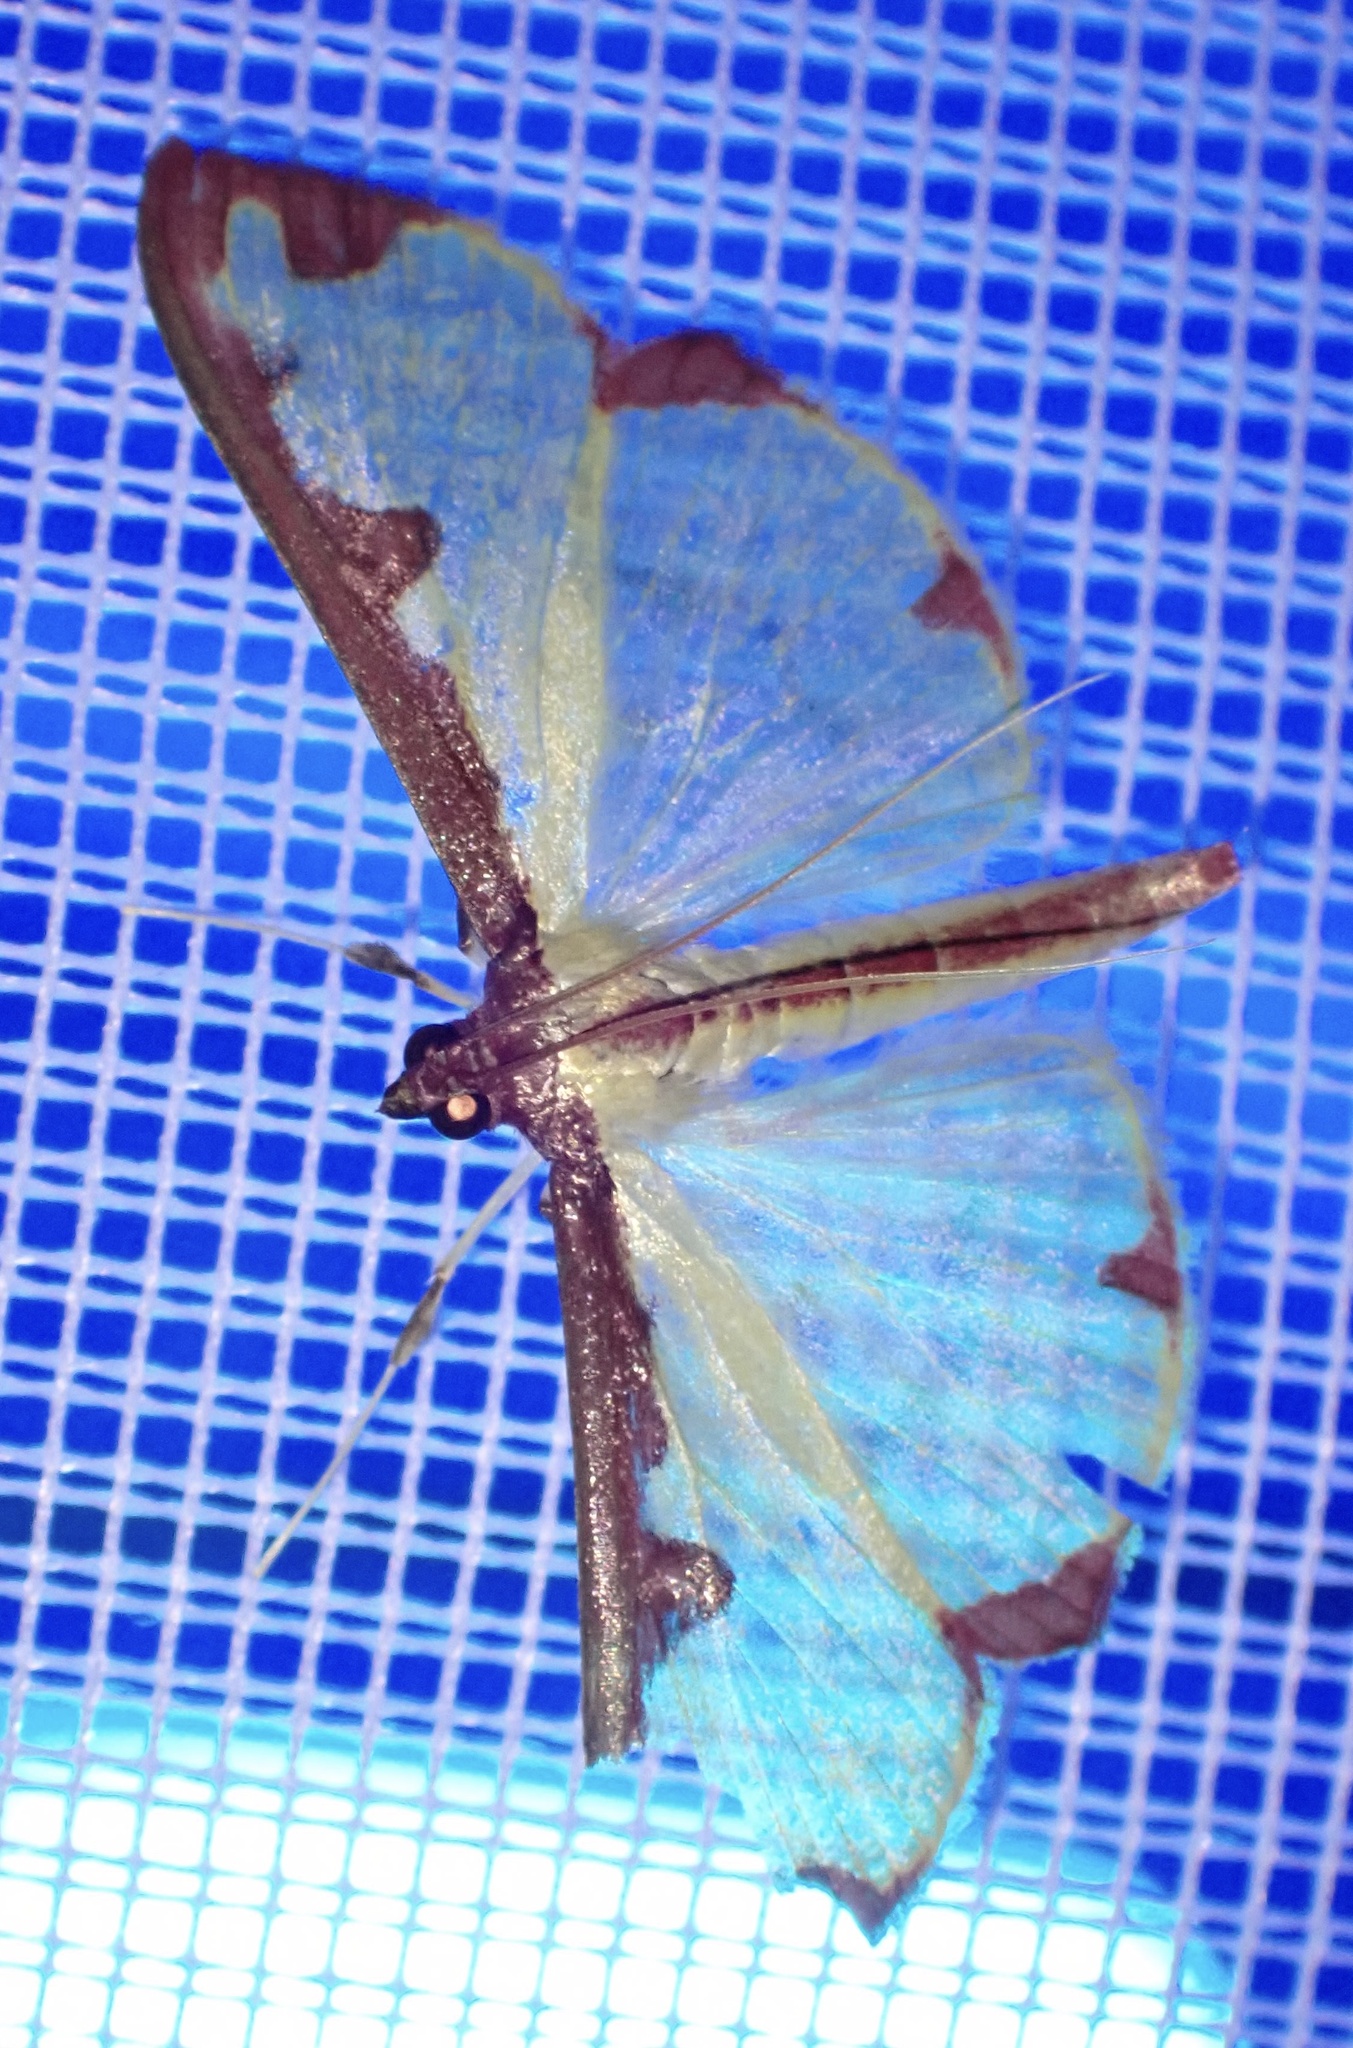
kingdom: Animalia
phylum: Arthropoda
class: Insecta
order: Lepidoptera
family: Crambidae
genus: Cadarena
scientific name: Cadarena pudoraria
